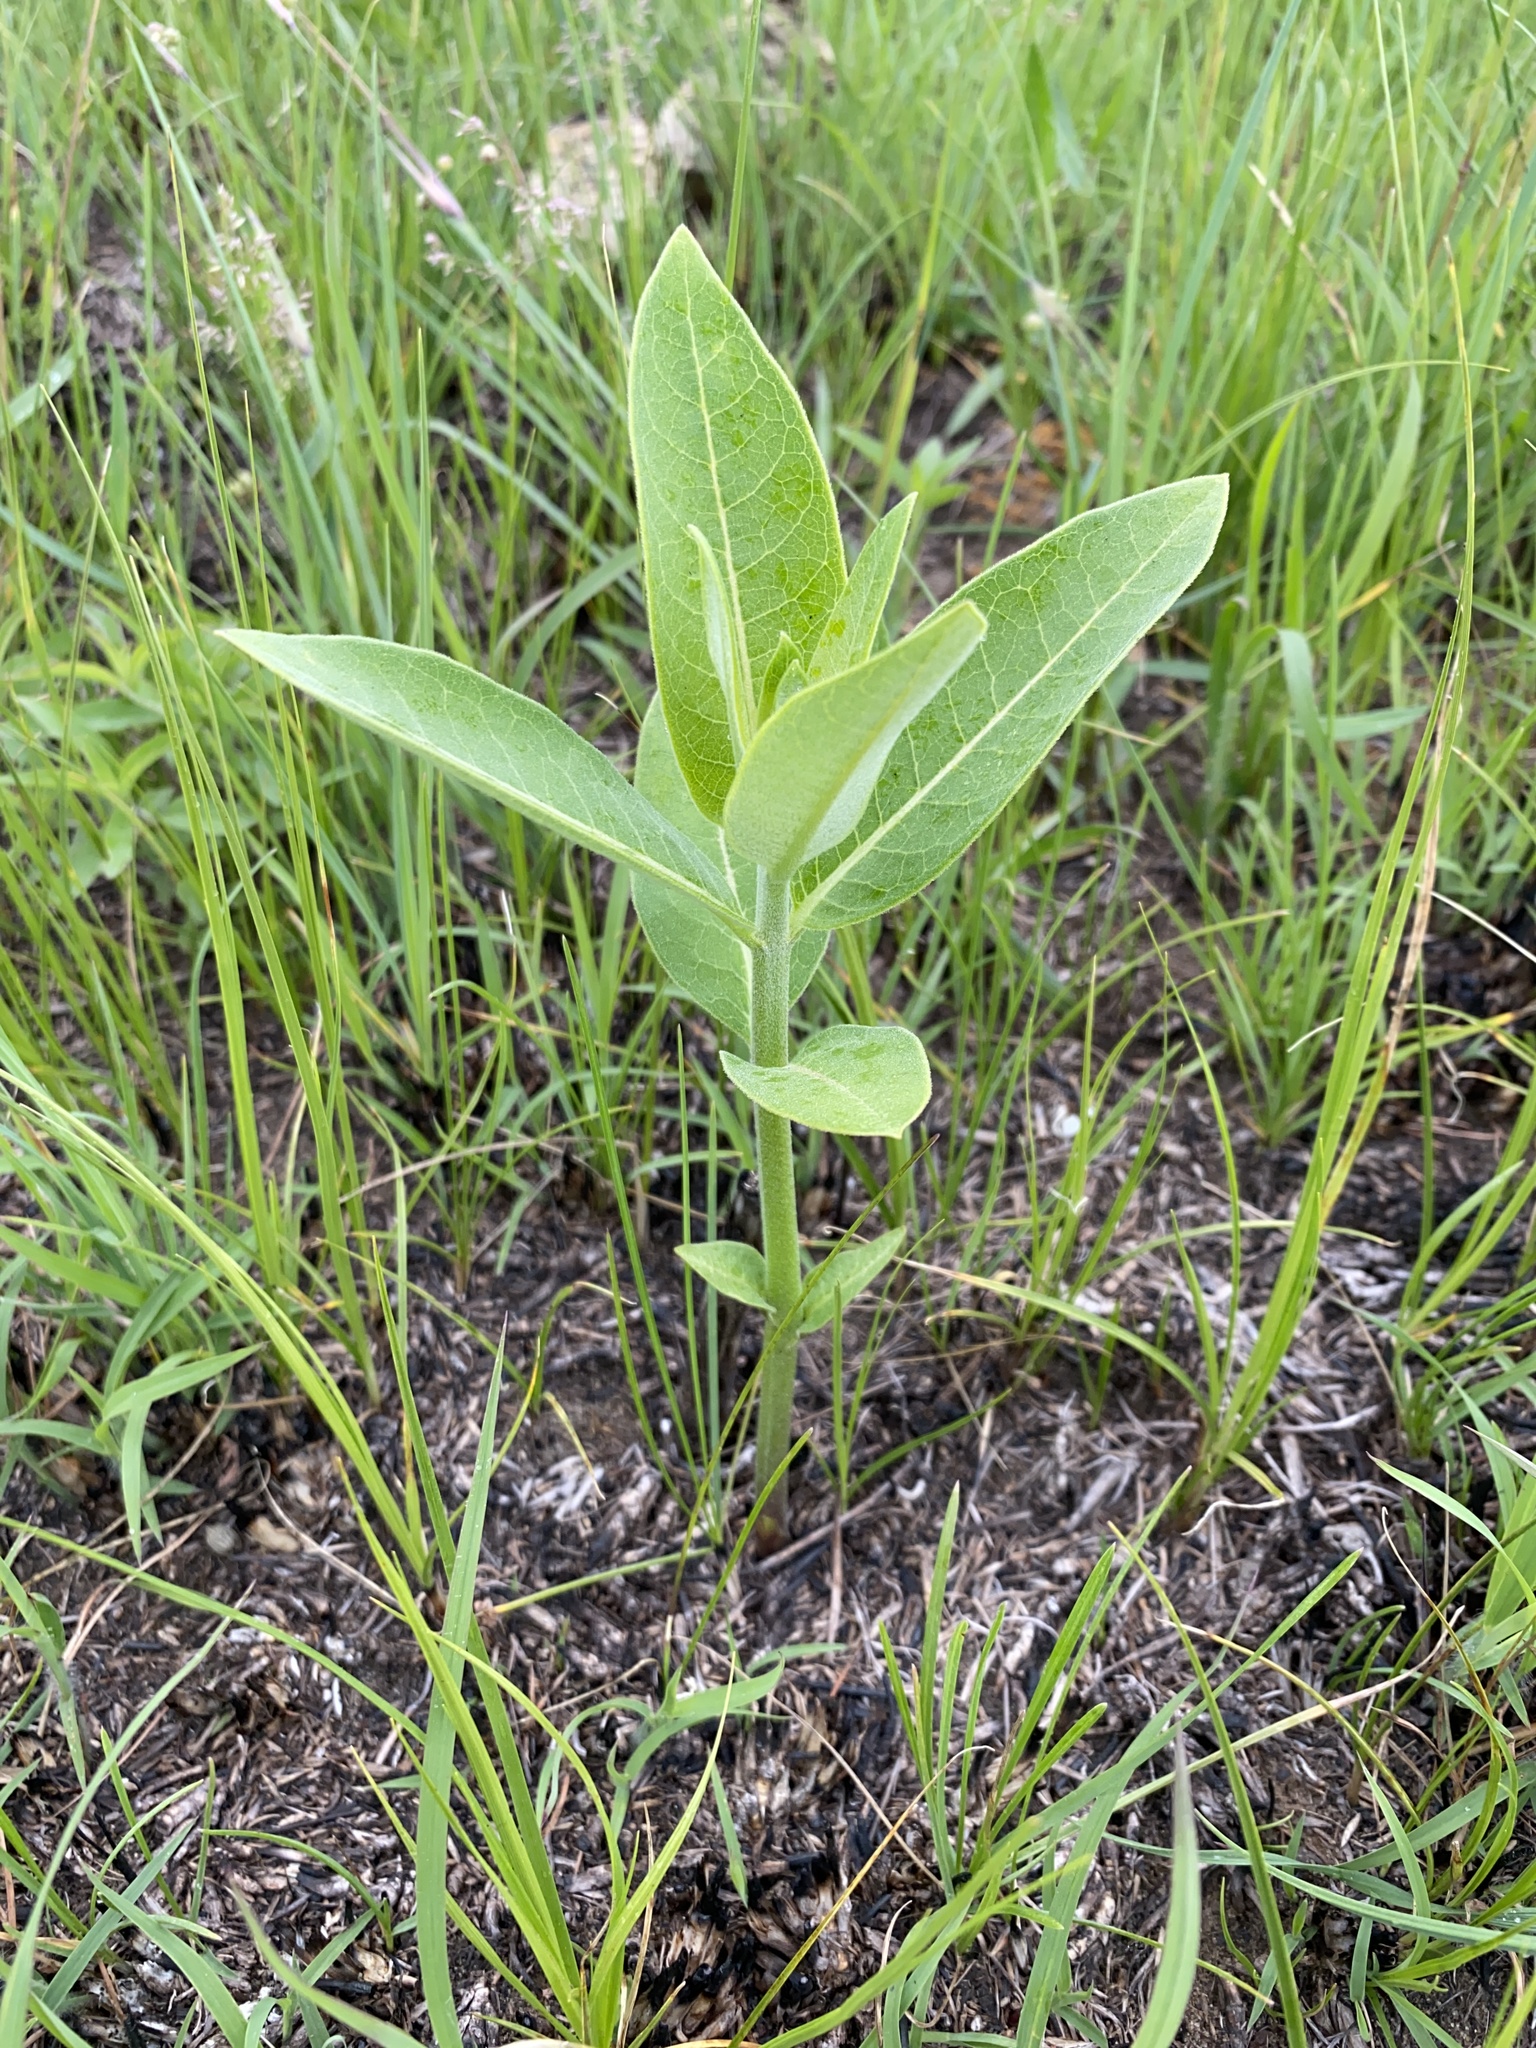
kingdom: Plantae
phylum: Tracheophyta
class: Magnoliopsida
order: Gentianales
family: Apocynaceae
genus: Asclepias
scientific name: Asclepias syriaca
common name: Common milkweed
